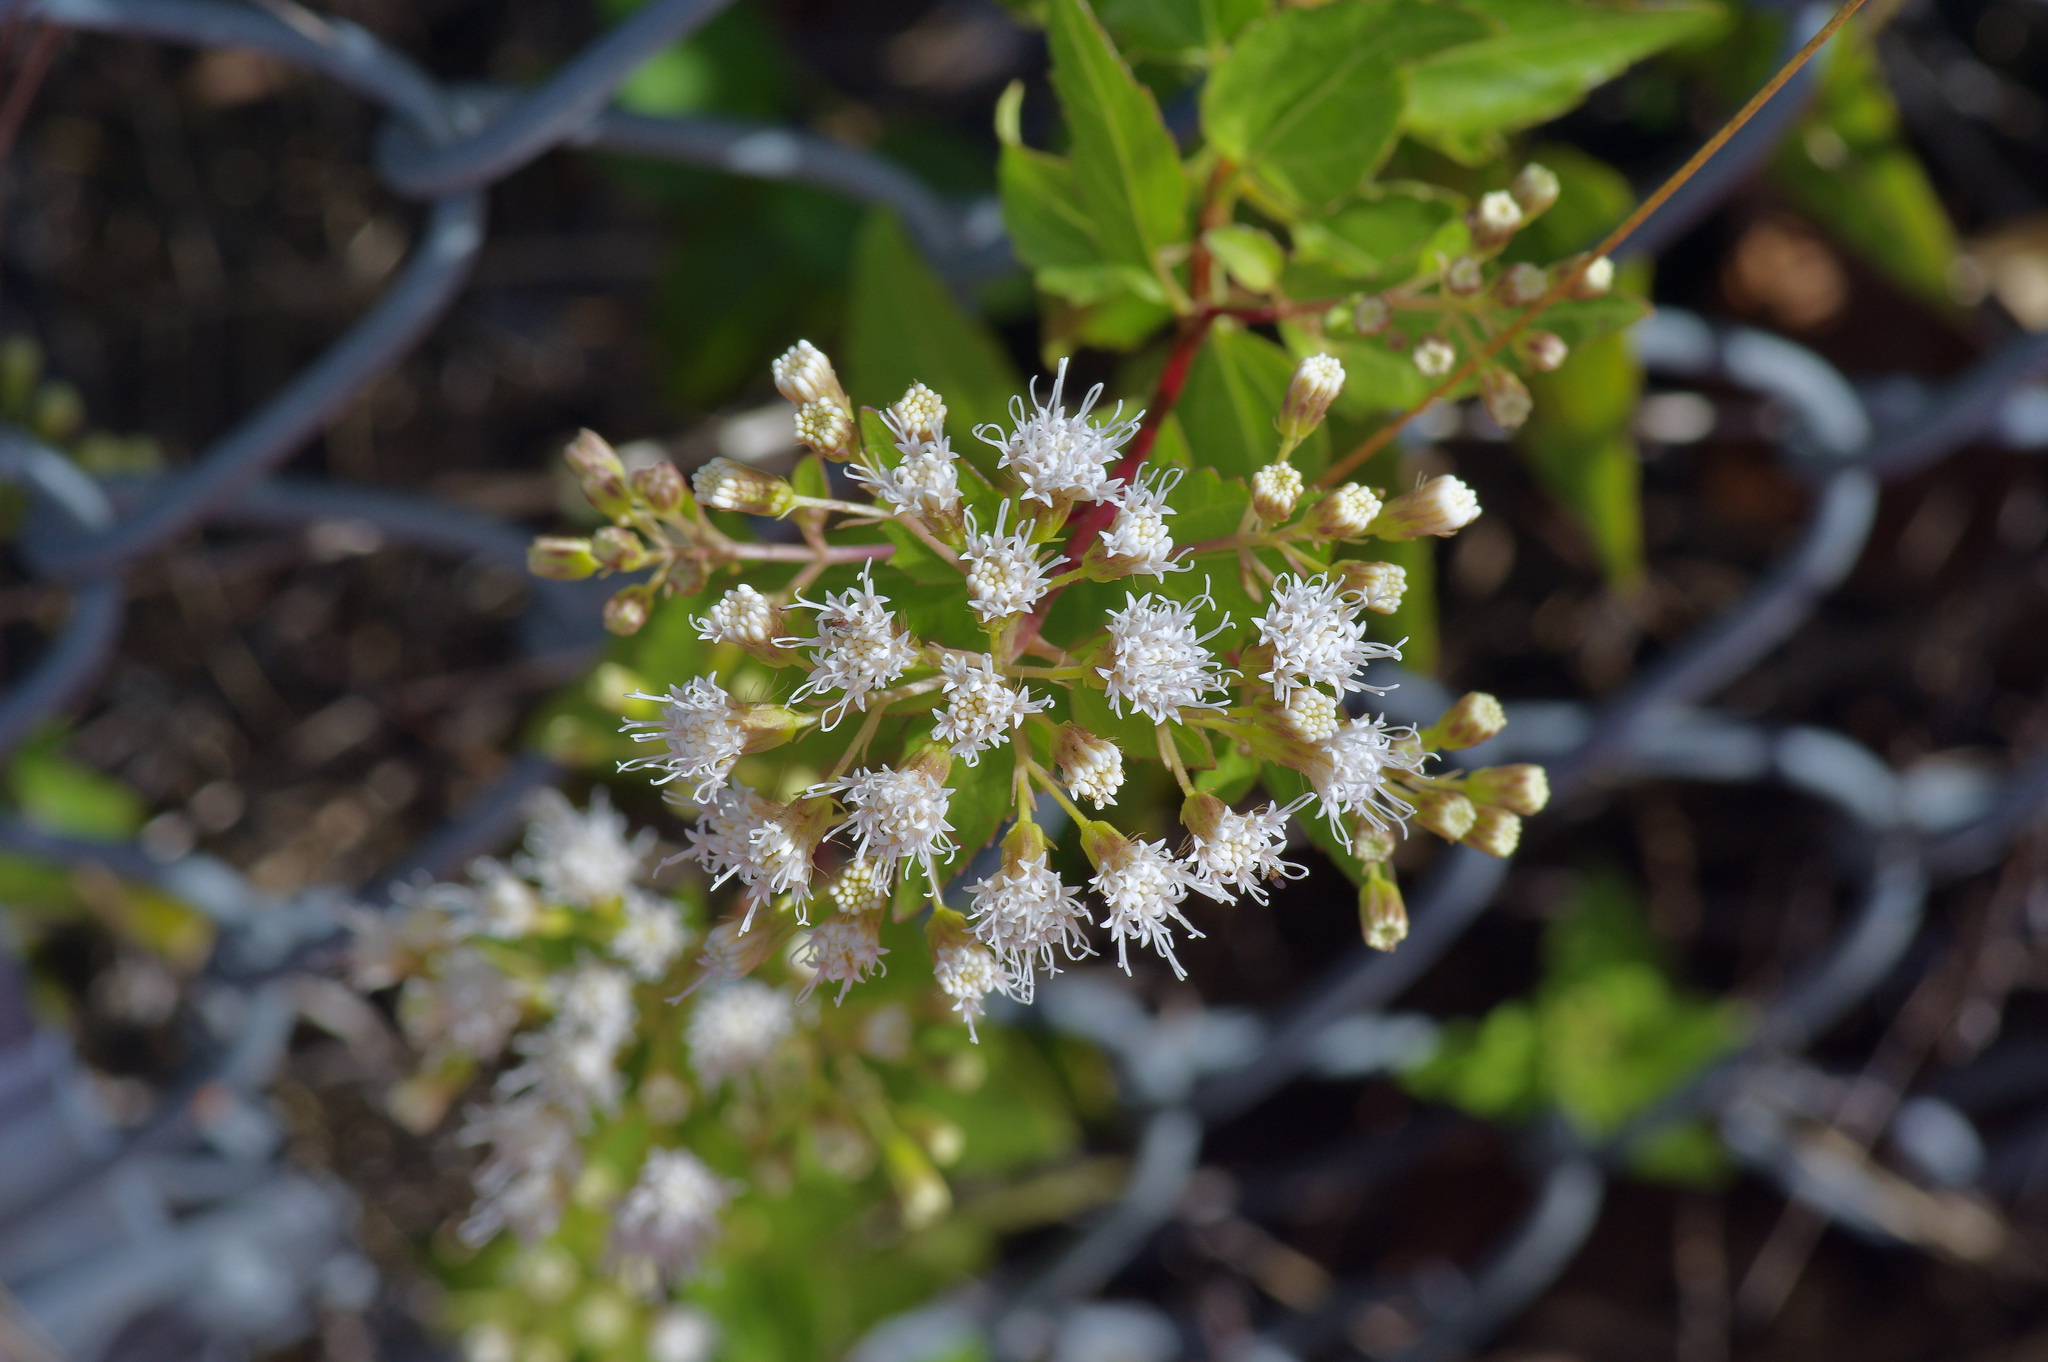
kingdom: Plantae
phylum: Tracheophyta
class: Magnoliopsida
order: Asterales
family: Asteraceae
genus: Ageratina
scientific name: Ageratina havanensis
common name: Havana snakeroot
